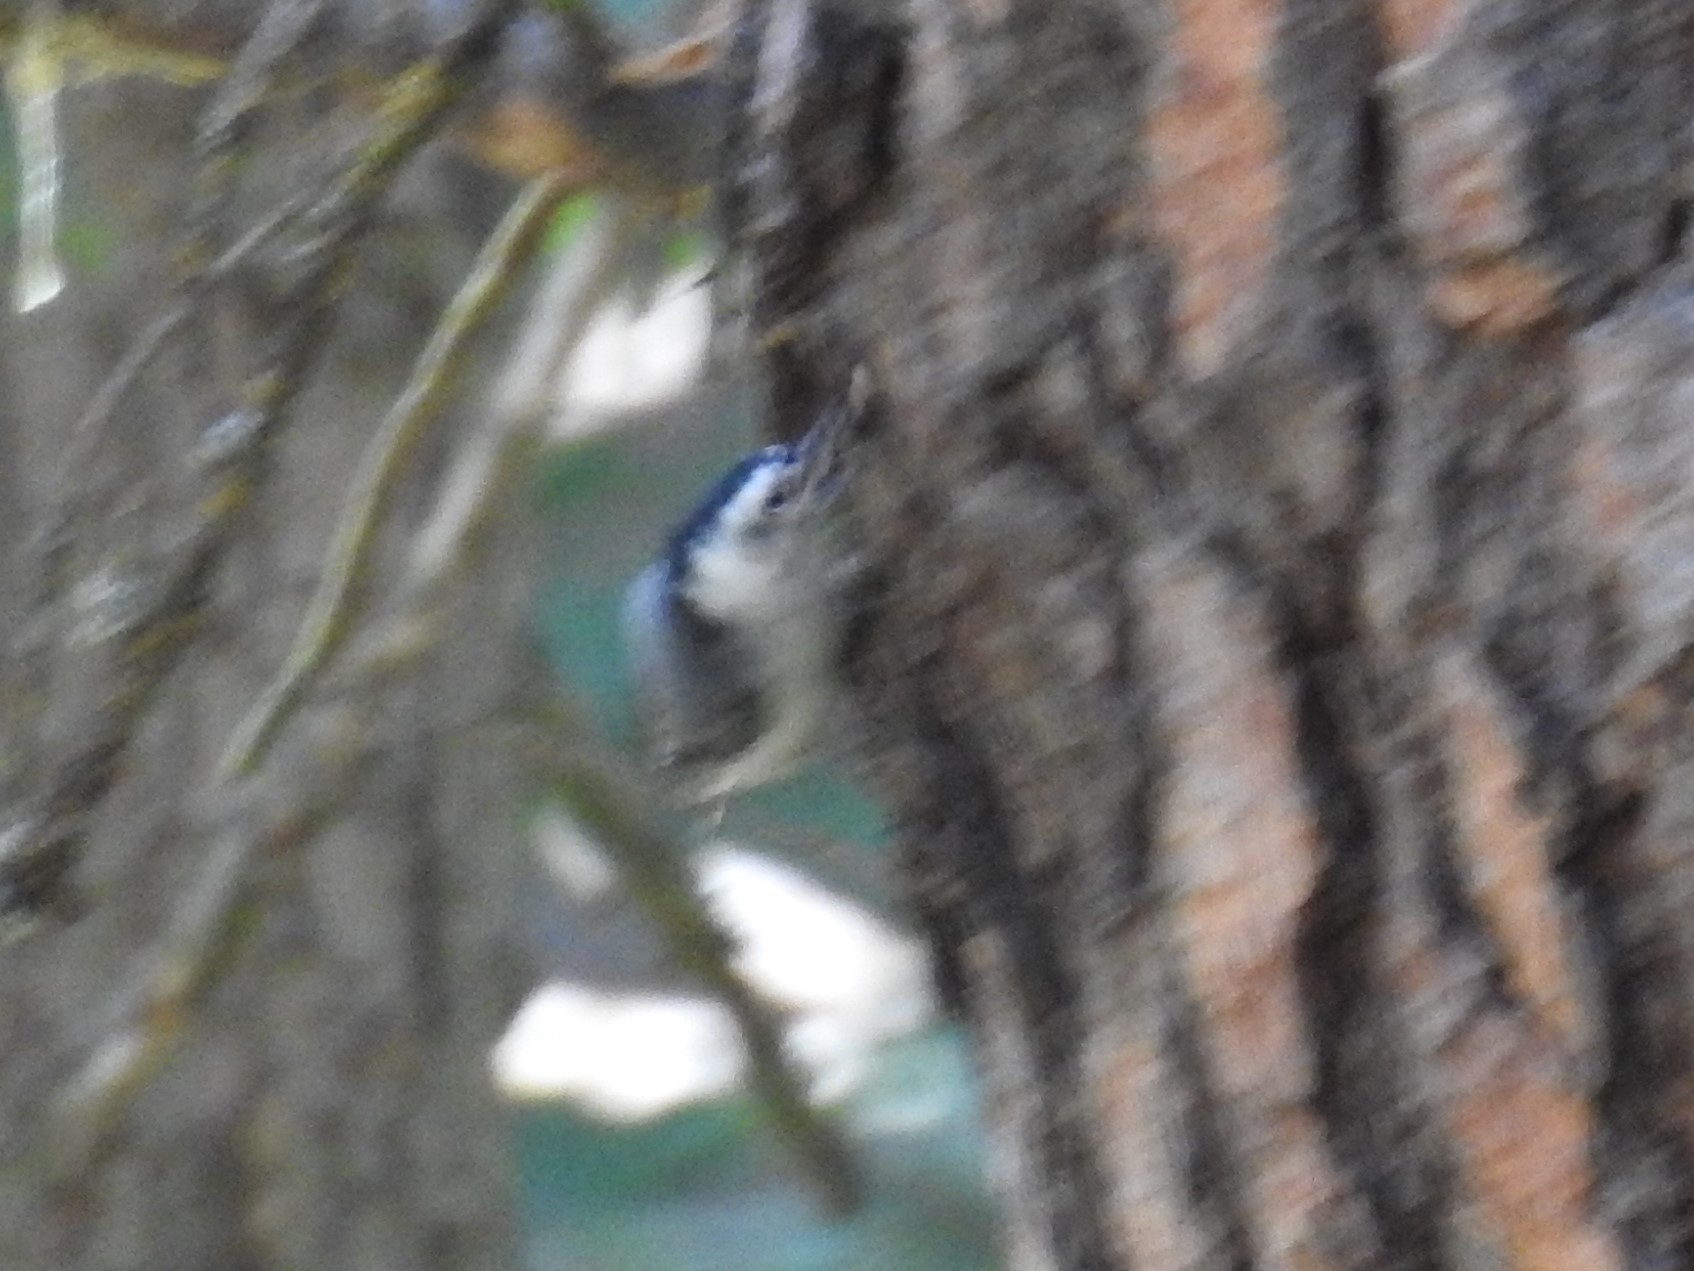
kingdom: Animalia
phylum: Chordata
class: Aves
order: Passeriformes
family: Sittidae
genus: Sitta
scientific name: Sitta carolinensis
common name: White-breasted nuthatch
